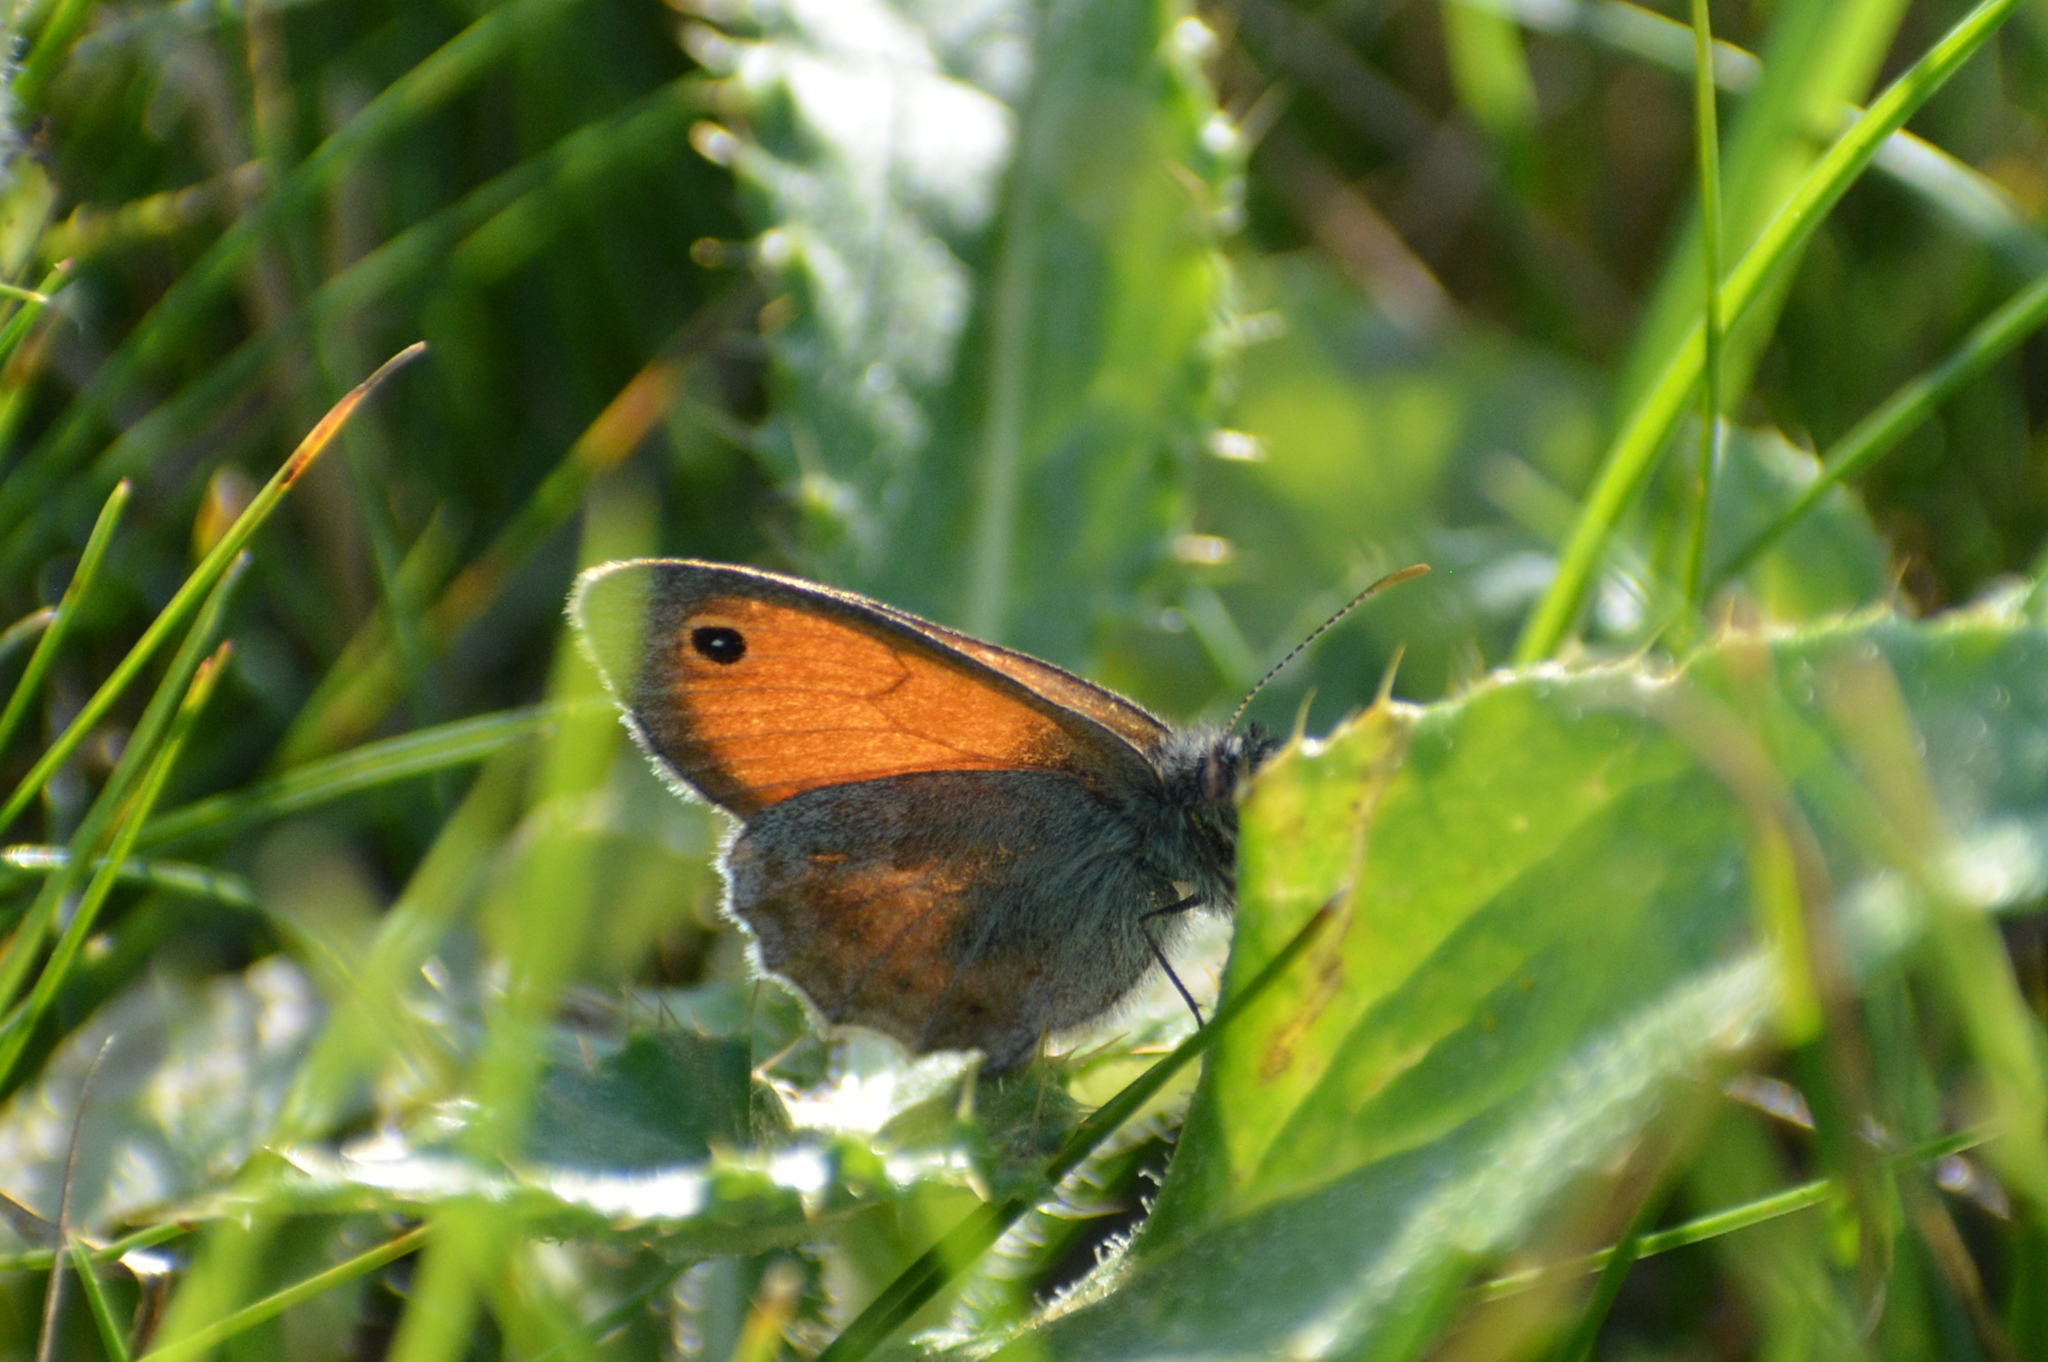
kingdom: Animalia
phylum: Arthropoda
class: Insecta
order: Lepidoptera
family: Nymphalidae
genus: Coenonympha
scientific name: Coenonympha pamphilus
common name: Small heath
